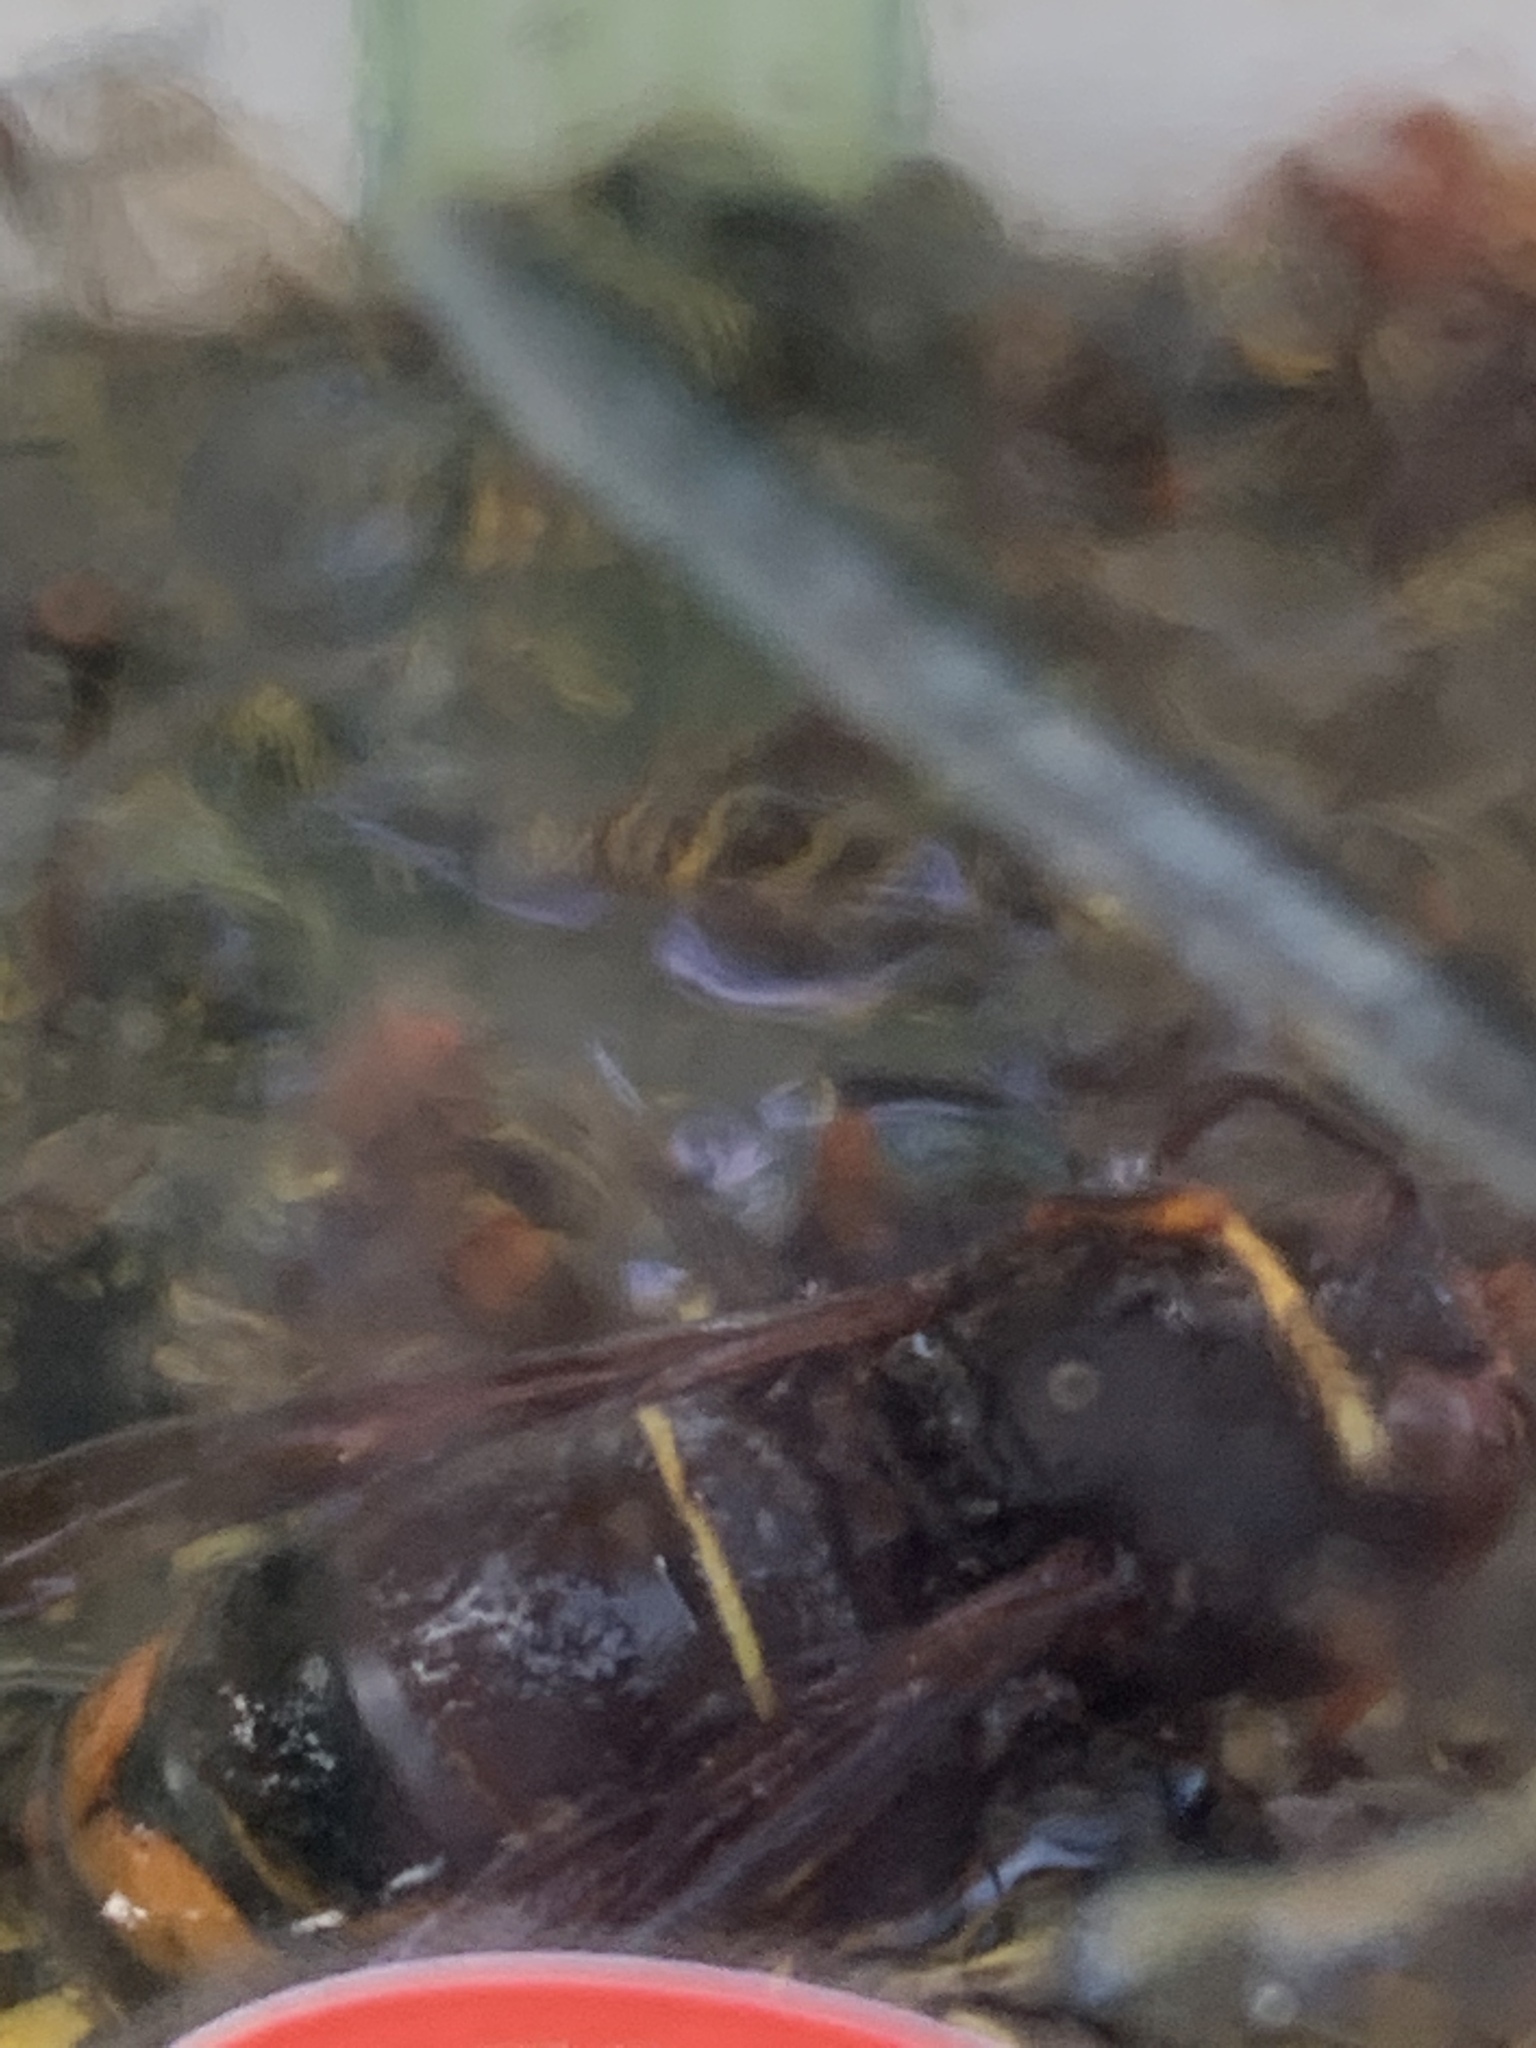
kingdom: Animalia
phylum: Arthropoda
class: Insecta
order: Hymenoptera
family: Vespidae
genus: Vespa
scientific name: Vespa velutina
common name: Asian hornet
